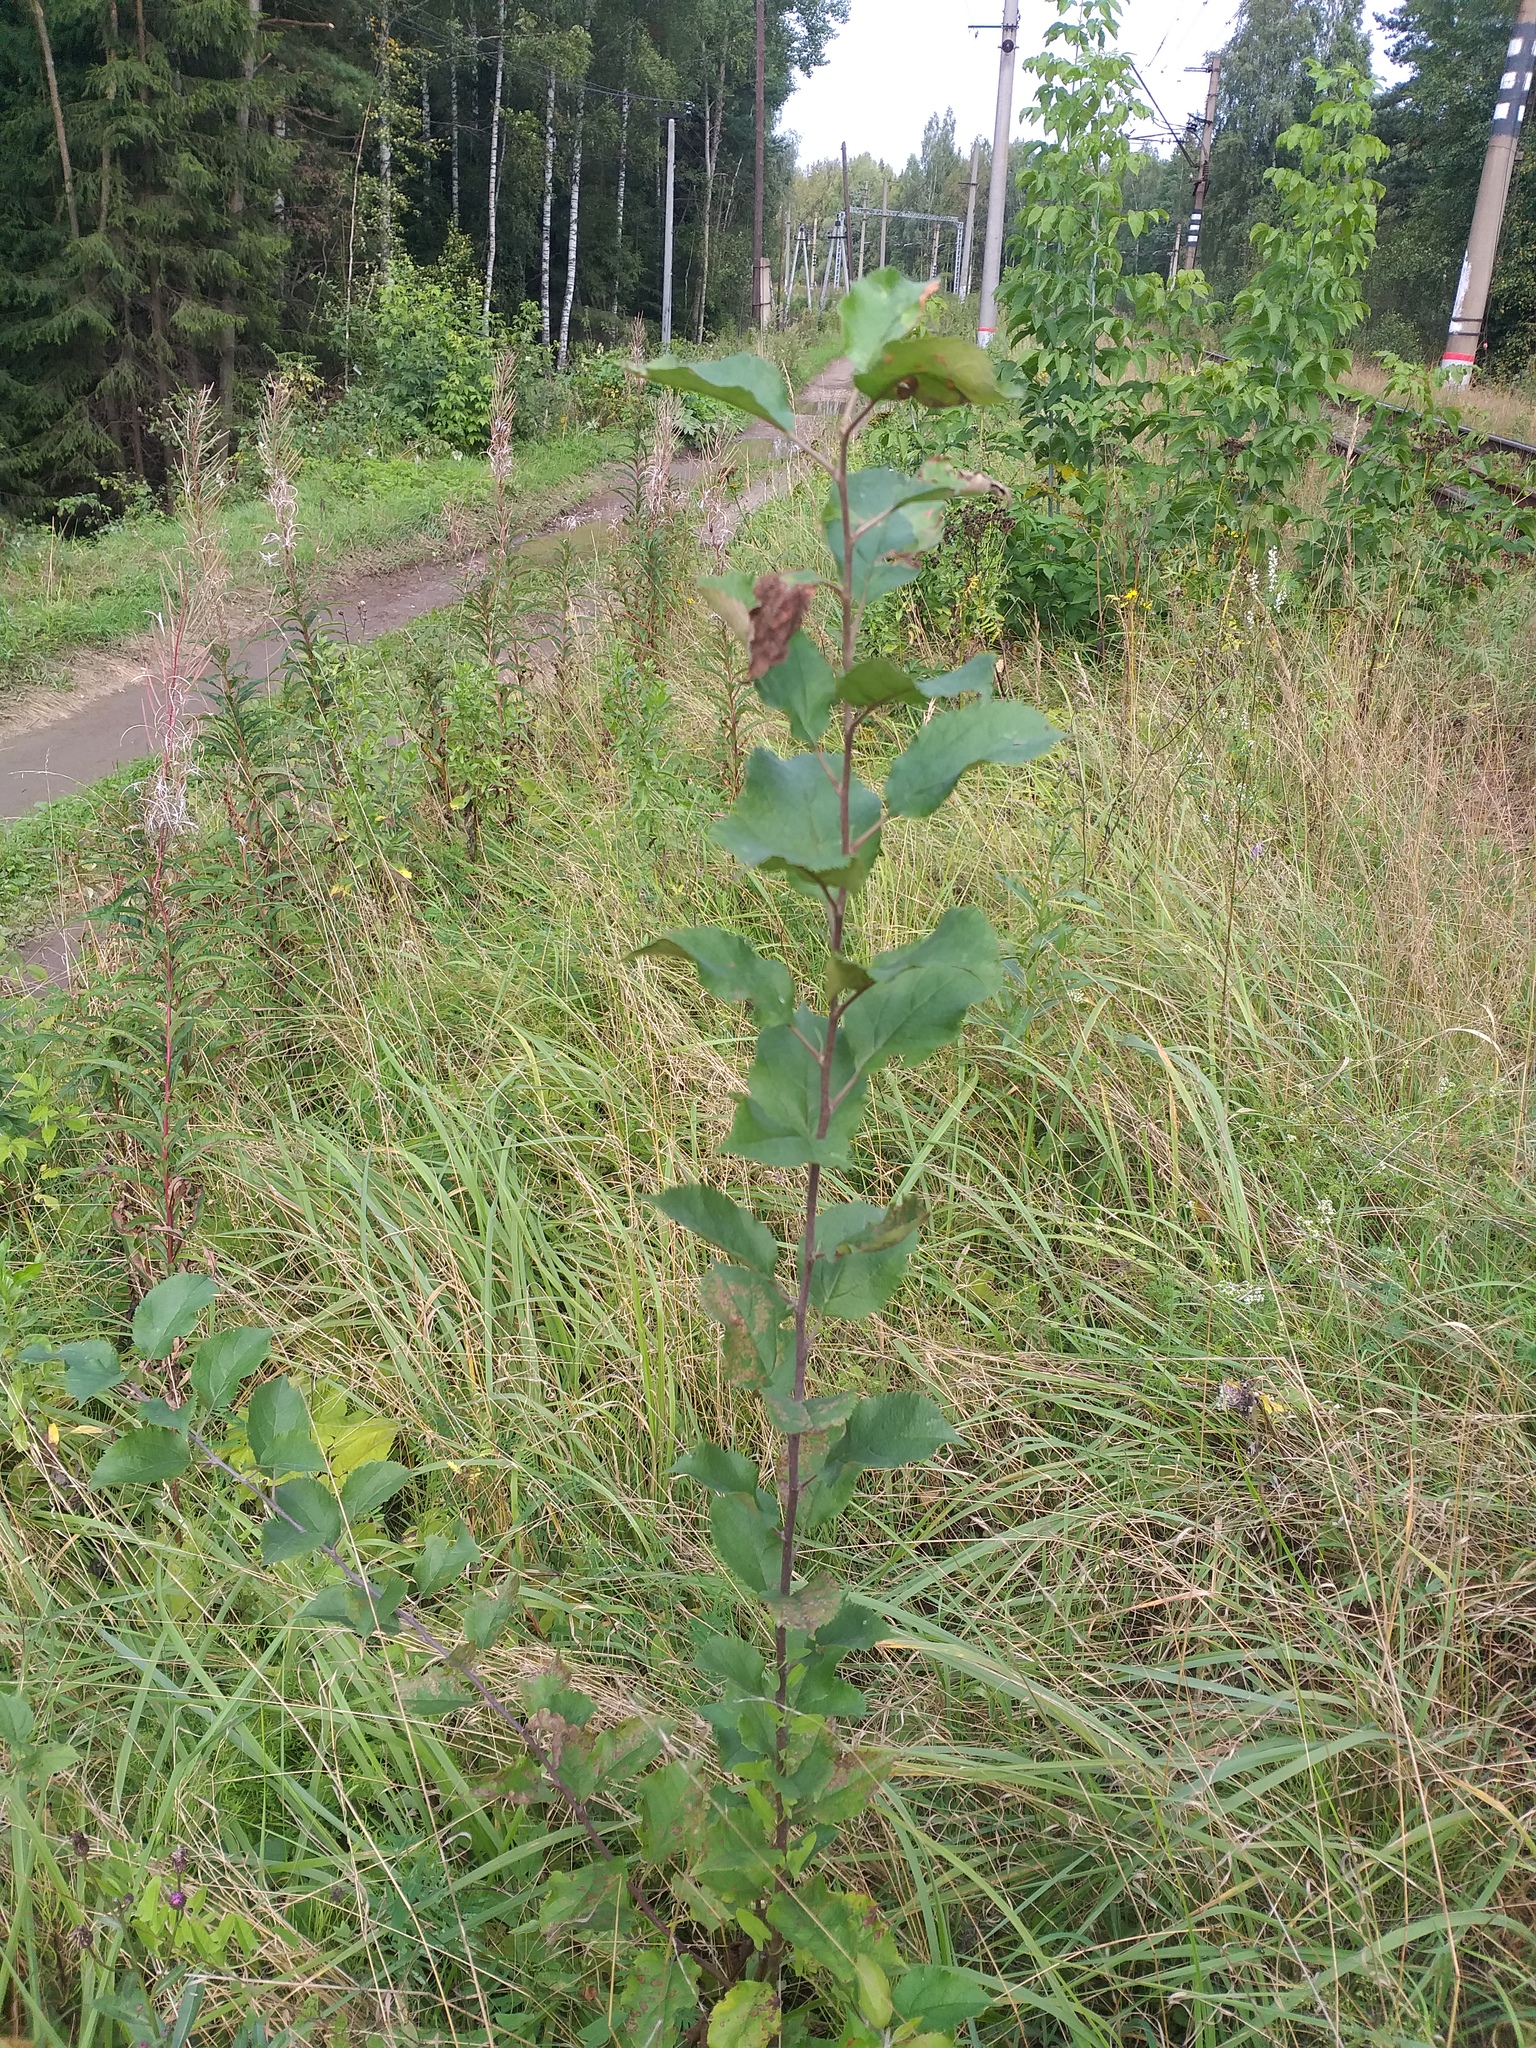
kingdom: Plantae
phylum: Tracheophyta
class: Magnoliopsida
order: Rosales
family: Rosaceae
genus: Malus
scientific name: Malus domestica
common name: Apple
